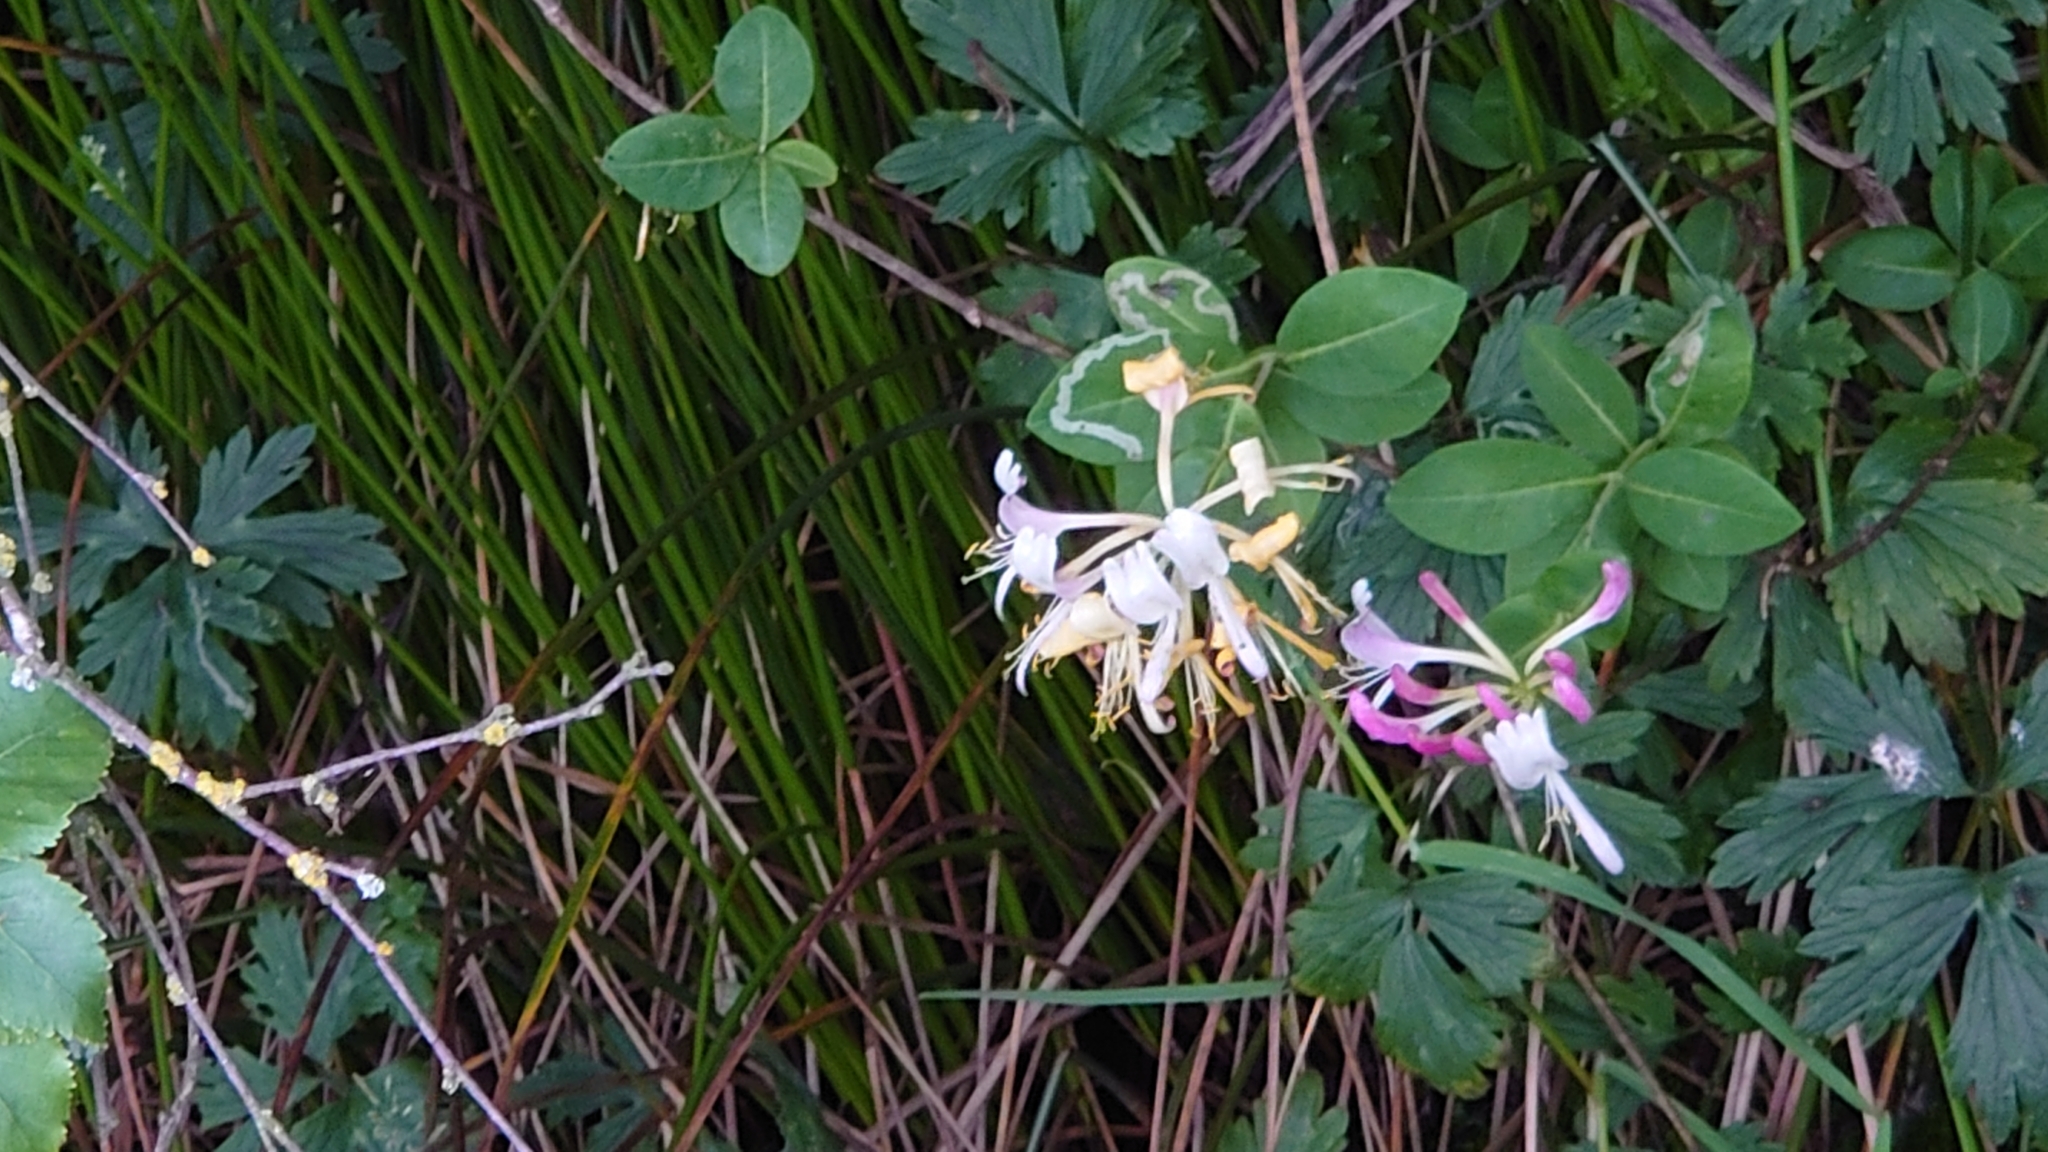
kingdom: Plantae
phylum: Tracheophyta
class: Magnoliopsida
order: Dipsacales
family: Caprifoliaceae
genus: Lonicera
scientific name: Lonicera periclymenum
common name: European honeysuckle
